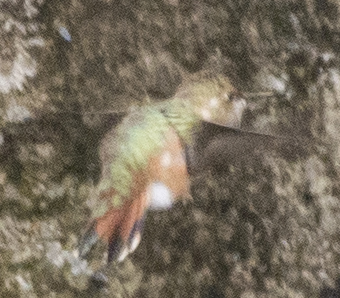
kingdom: Animalia
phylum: Chordata
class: Aves
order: Apodiformes
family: Trochilidae
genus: Selasphorus
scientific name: Selasphorus platycercus
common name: Broad-tailed hummingbird
